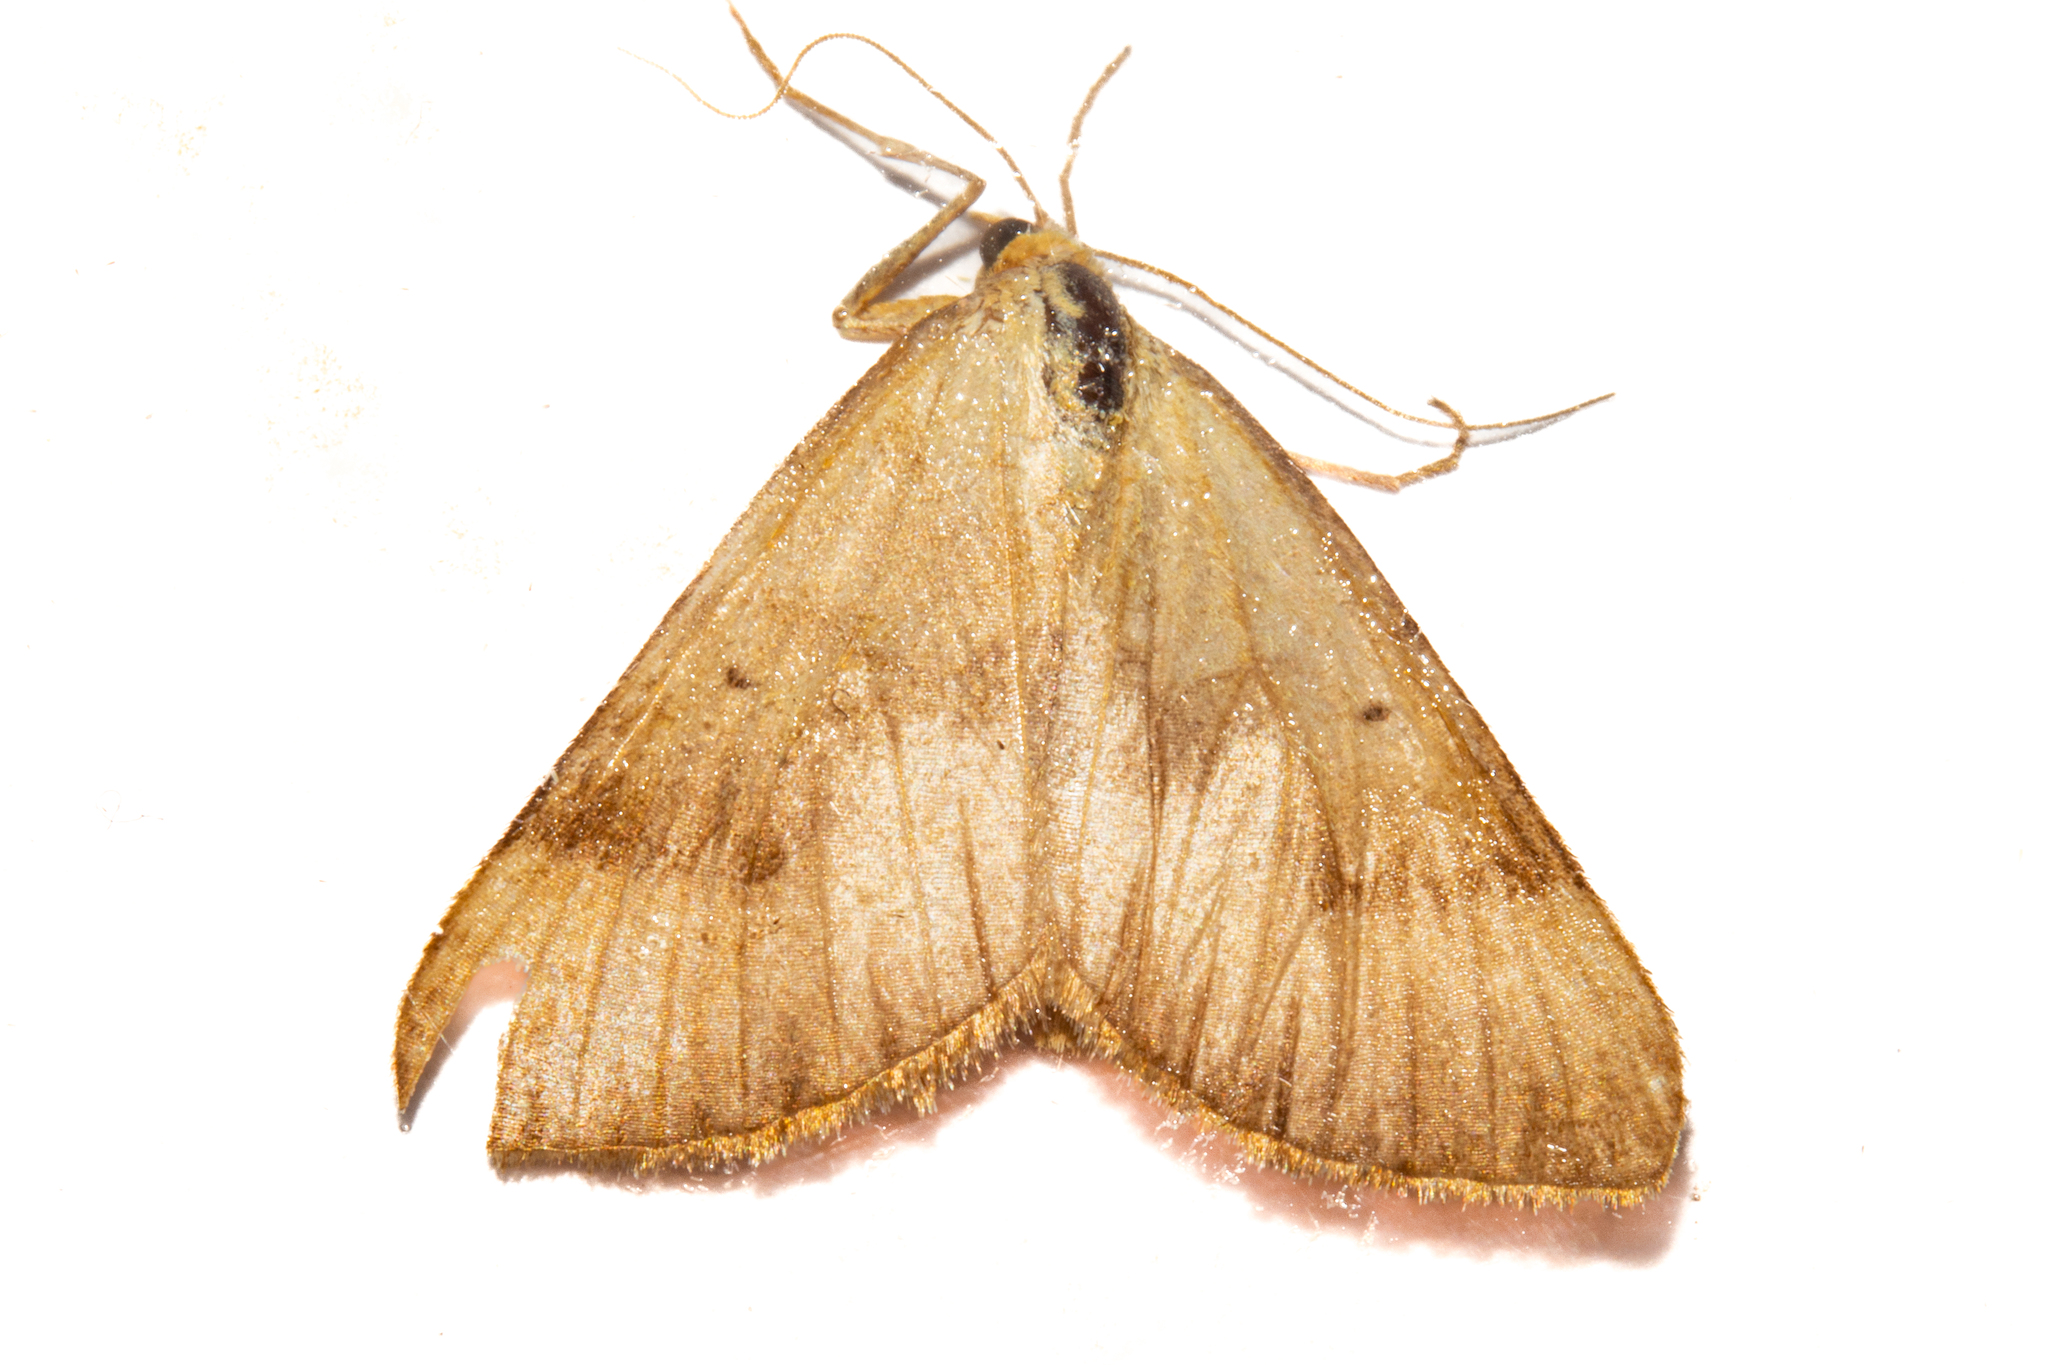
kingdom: Animalia
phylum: Arthropoda
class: Insecta
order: Lepidoptera
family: Geometridae
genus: Anachloris
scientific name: Anachloris subochraria
